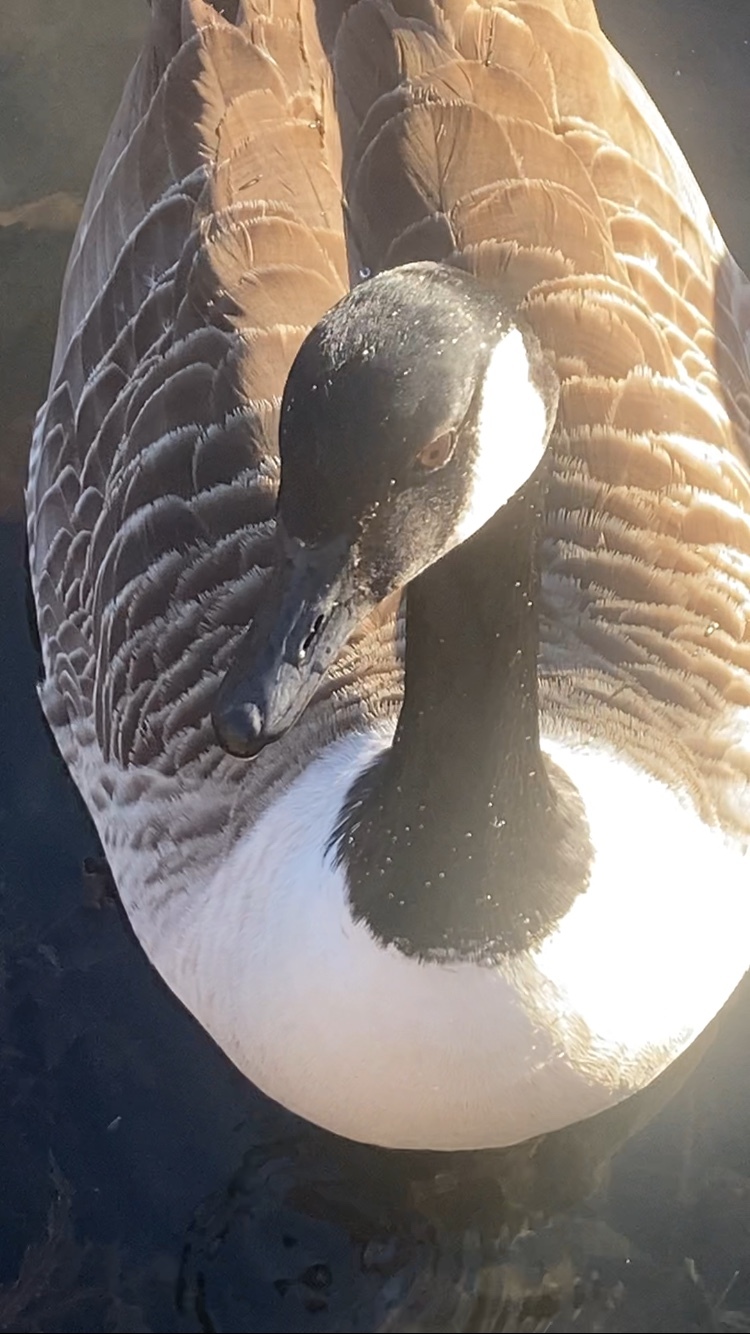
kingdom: Animalia
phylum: Chordata
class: Aves
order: Anseriformes
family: Anatidae
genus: Branta
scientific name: Branta canadensis
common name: Canada goose
